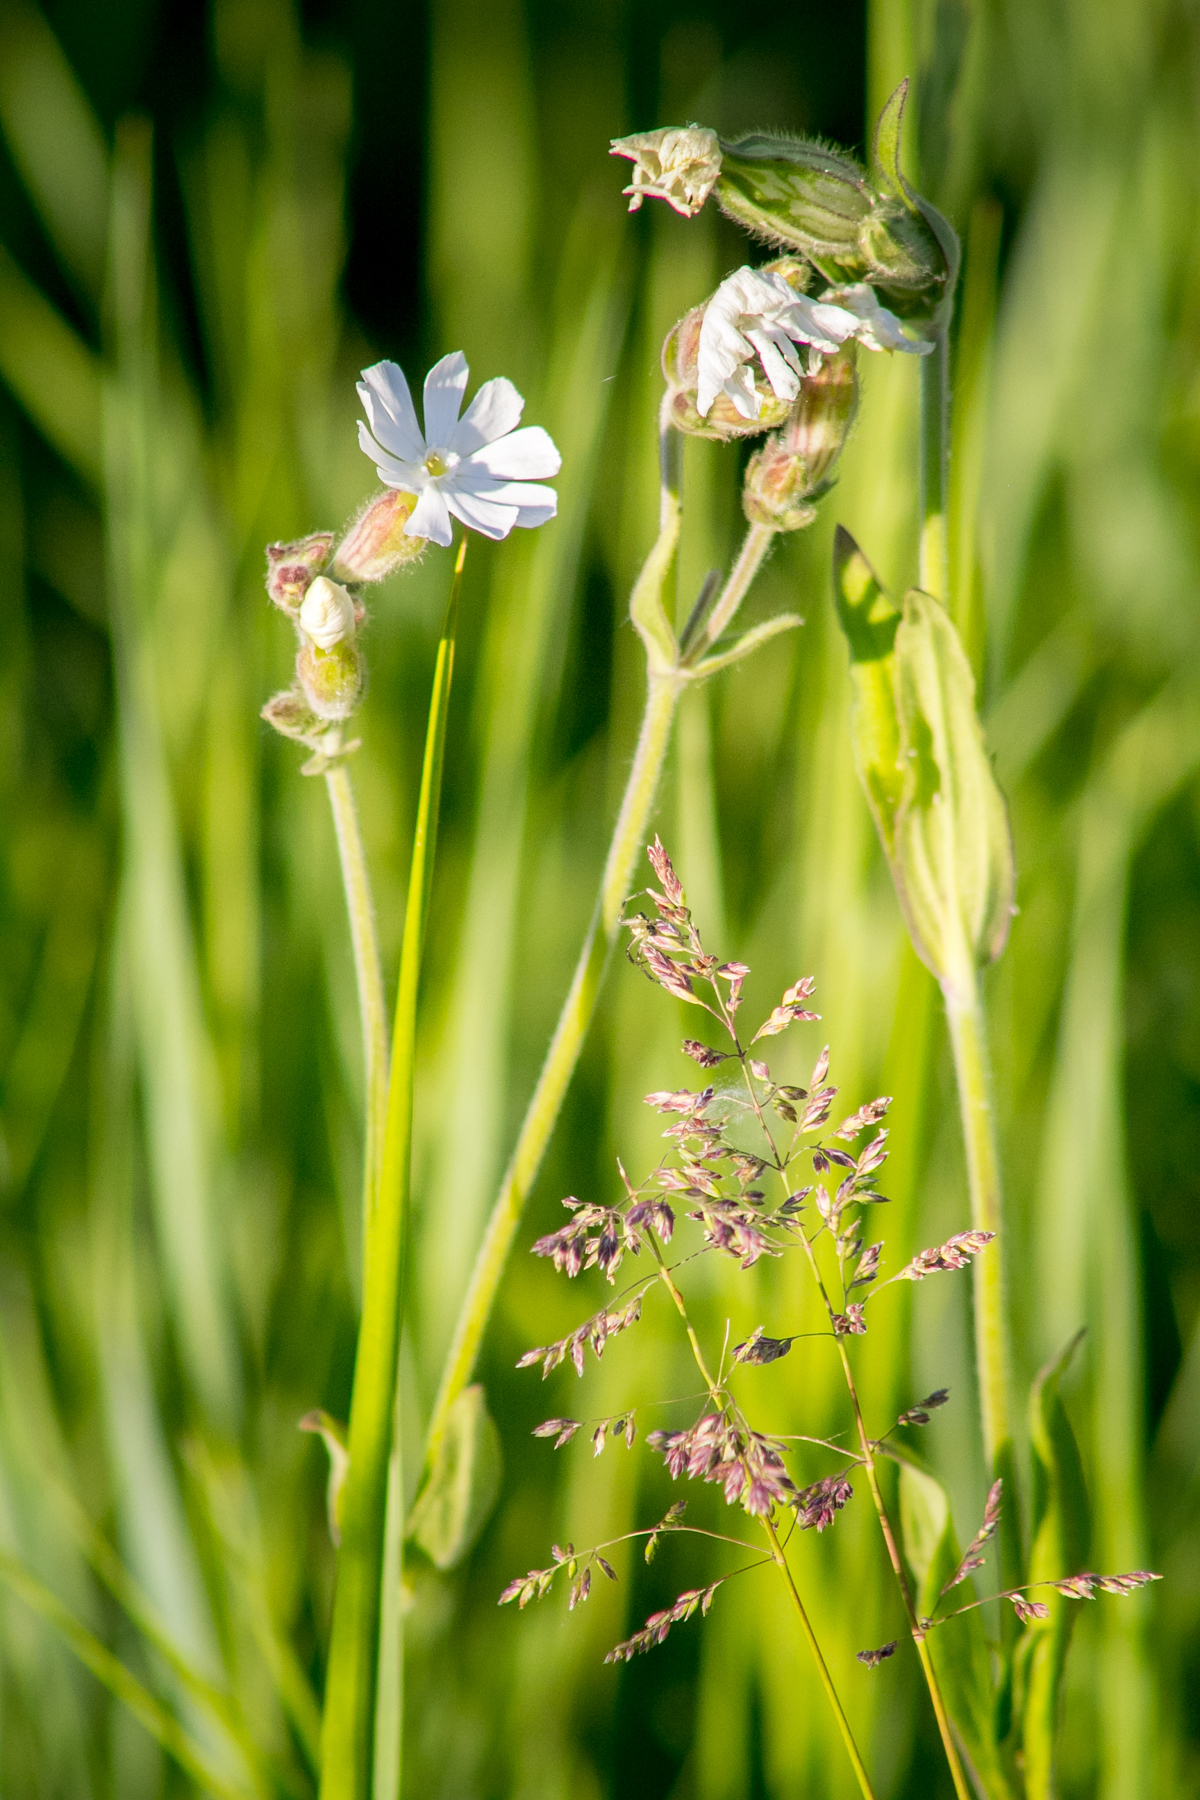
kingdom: Plantae
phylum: Tracheophyta
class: Magnoliopsida
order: Caryophyllales
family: Caryophyllaceae
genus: Silene
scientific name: Silene latifolia
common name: White campion
